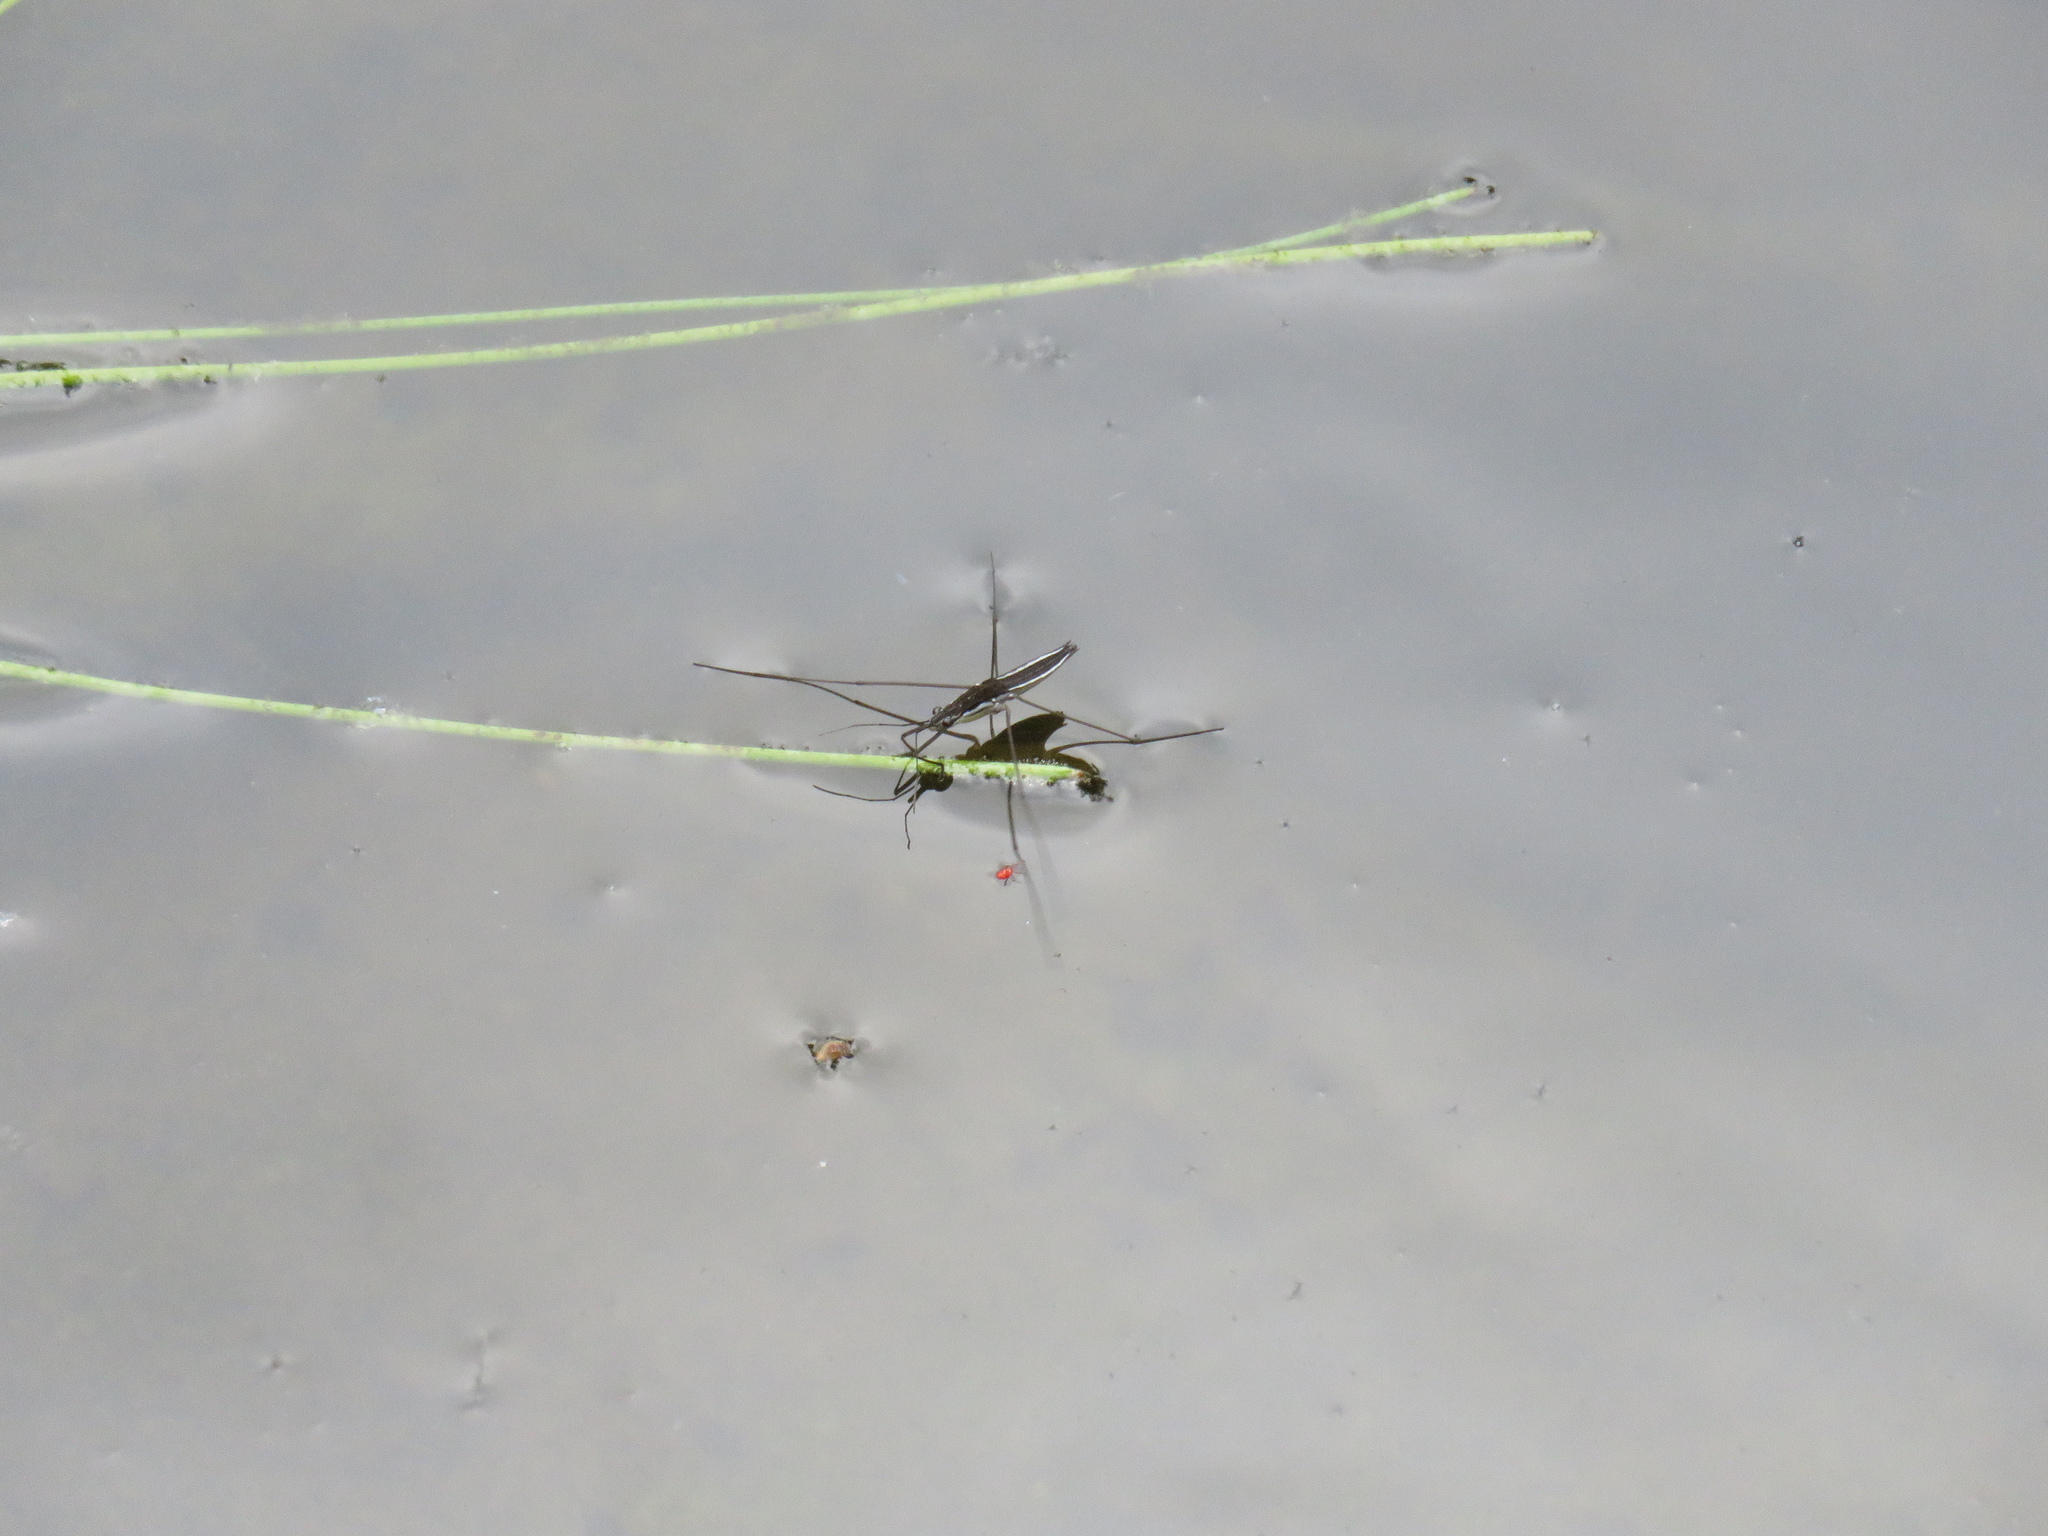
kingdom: Animalia
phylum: Arthropoda
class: Insecta
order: Hemiptera
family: Gerridae
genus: Limnoporus
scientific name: Limnoporus canaliculatus
